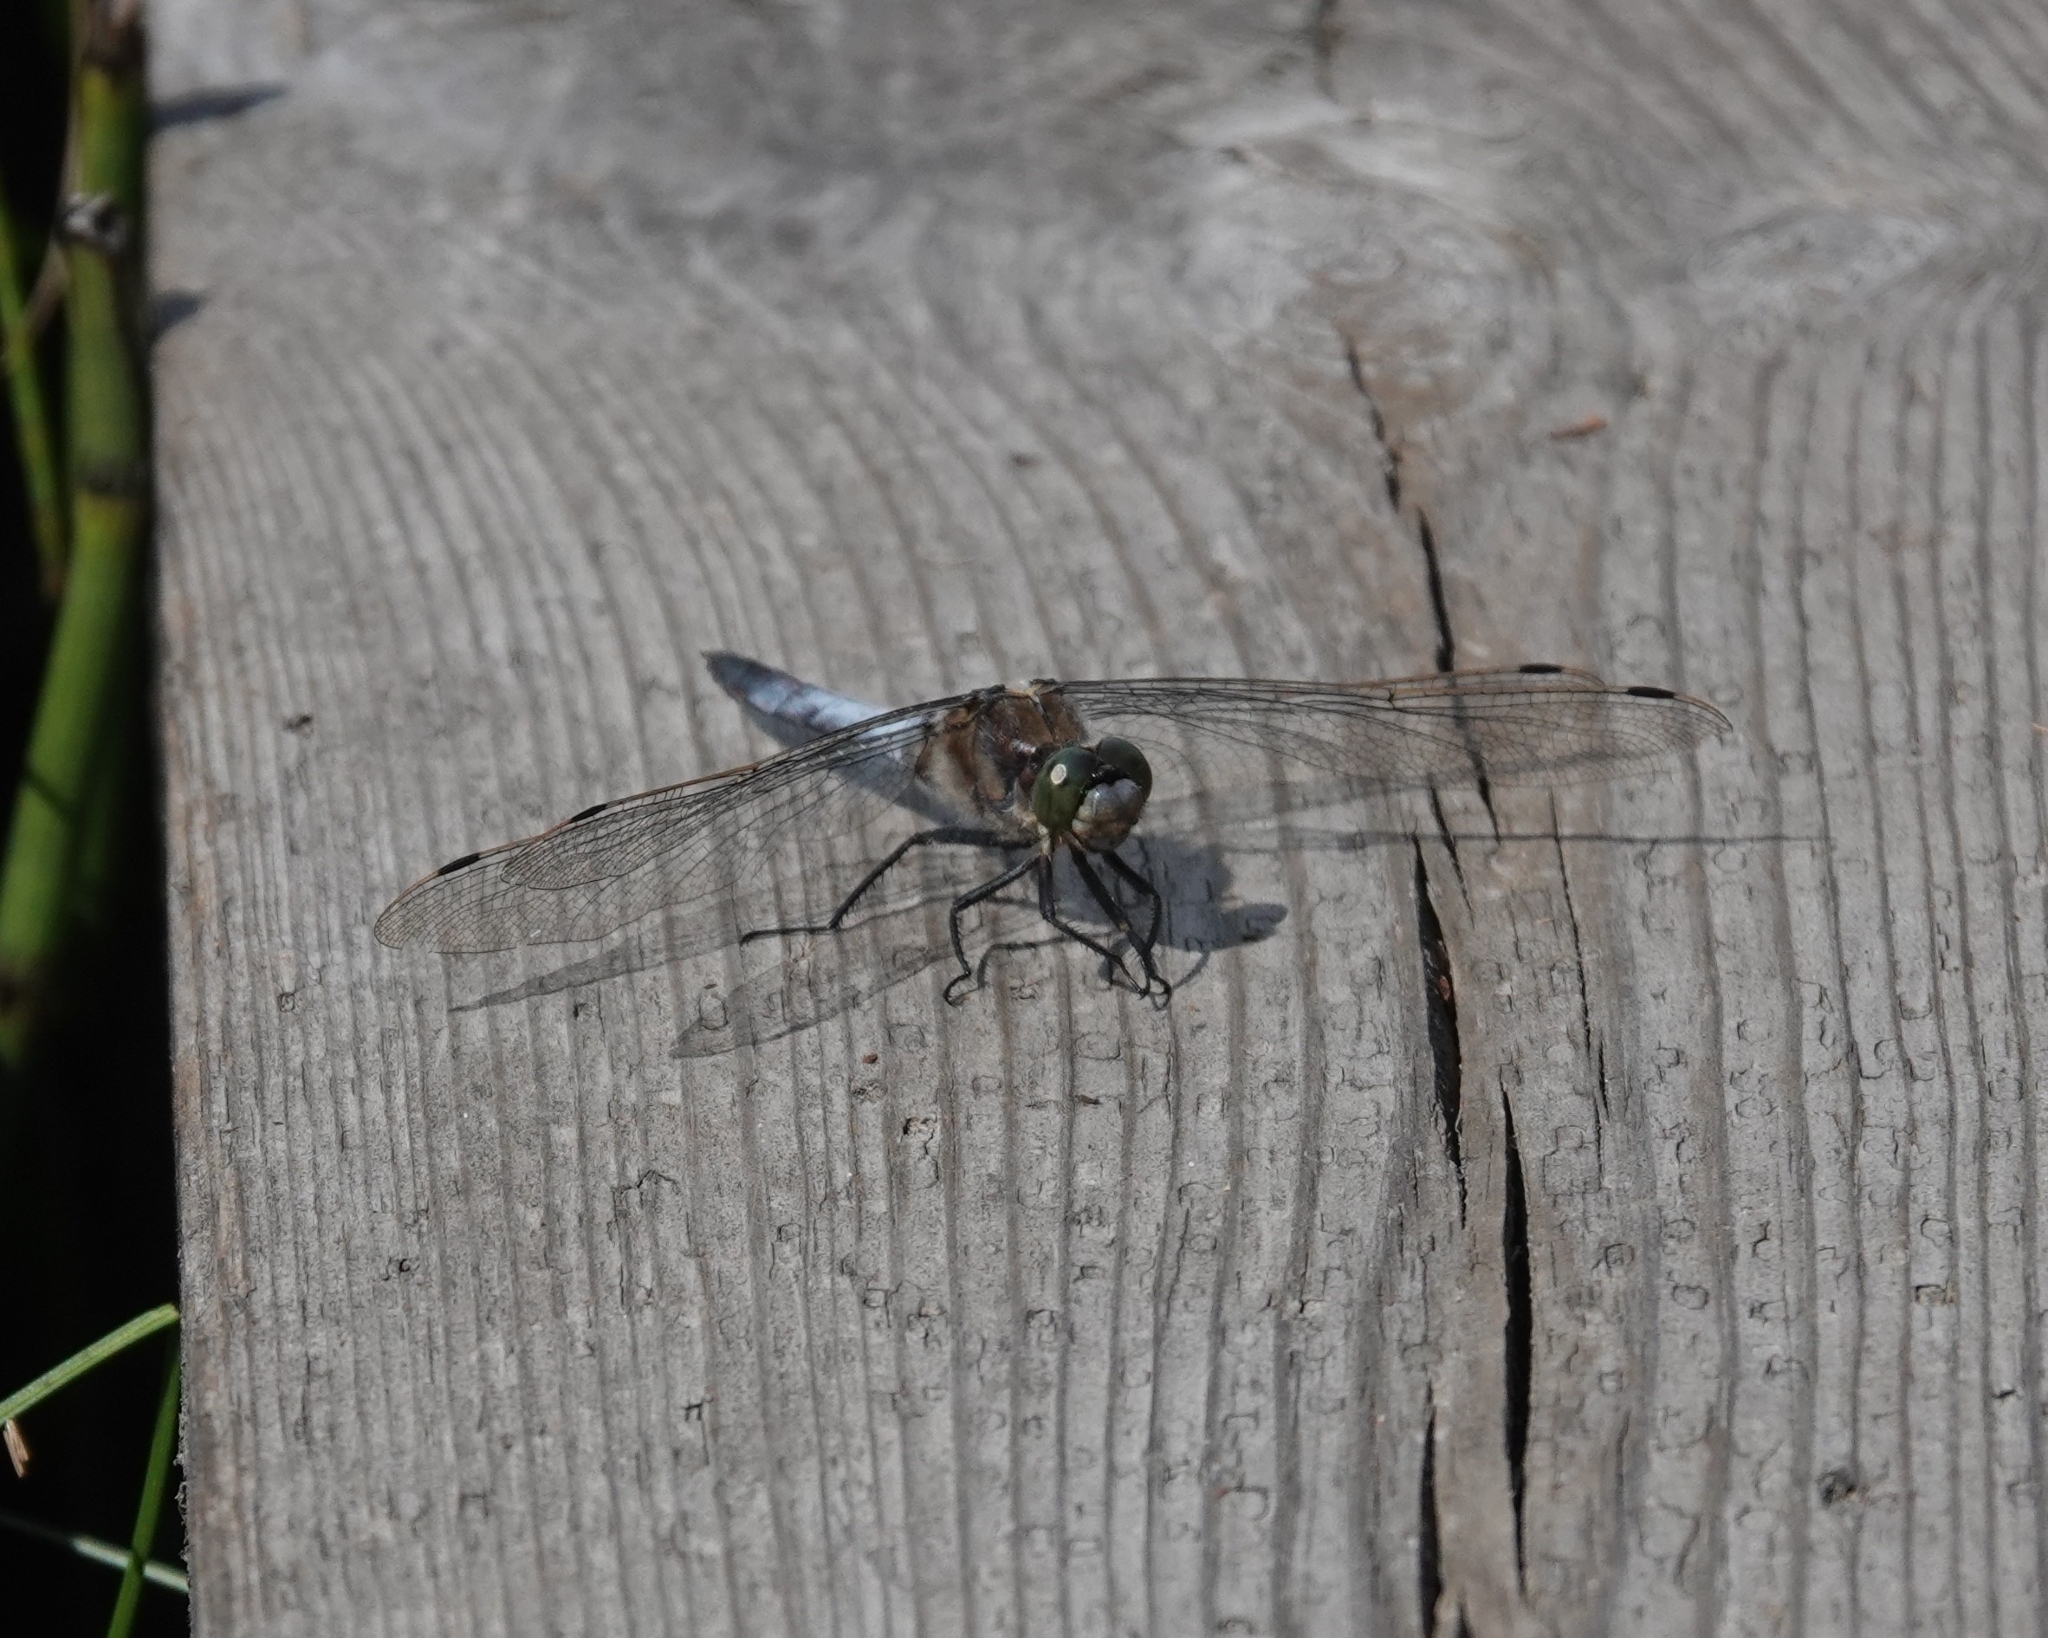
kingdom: Animalia
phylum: Arthropoda
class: Insecta
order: Odonata
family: Libellulidae
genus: Orthetrum
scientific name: Orthetrum cancellatum
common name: Black-tailed skimmer
